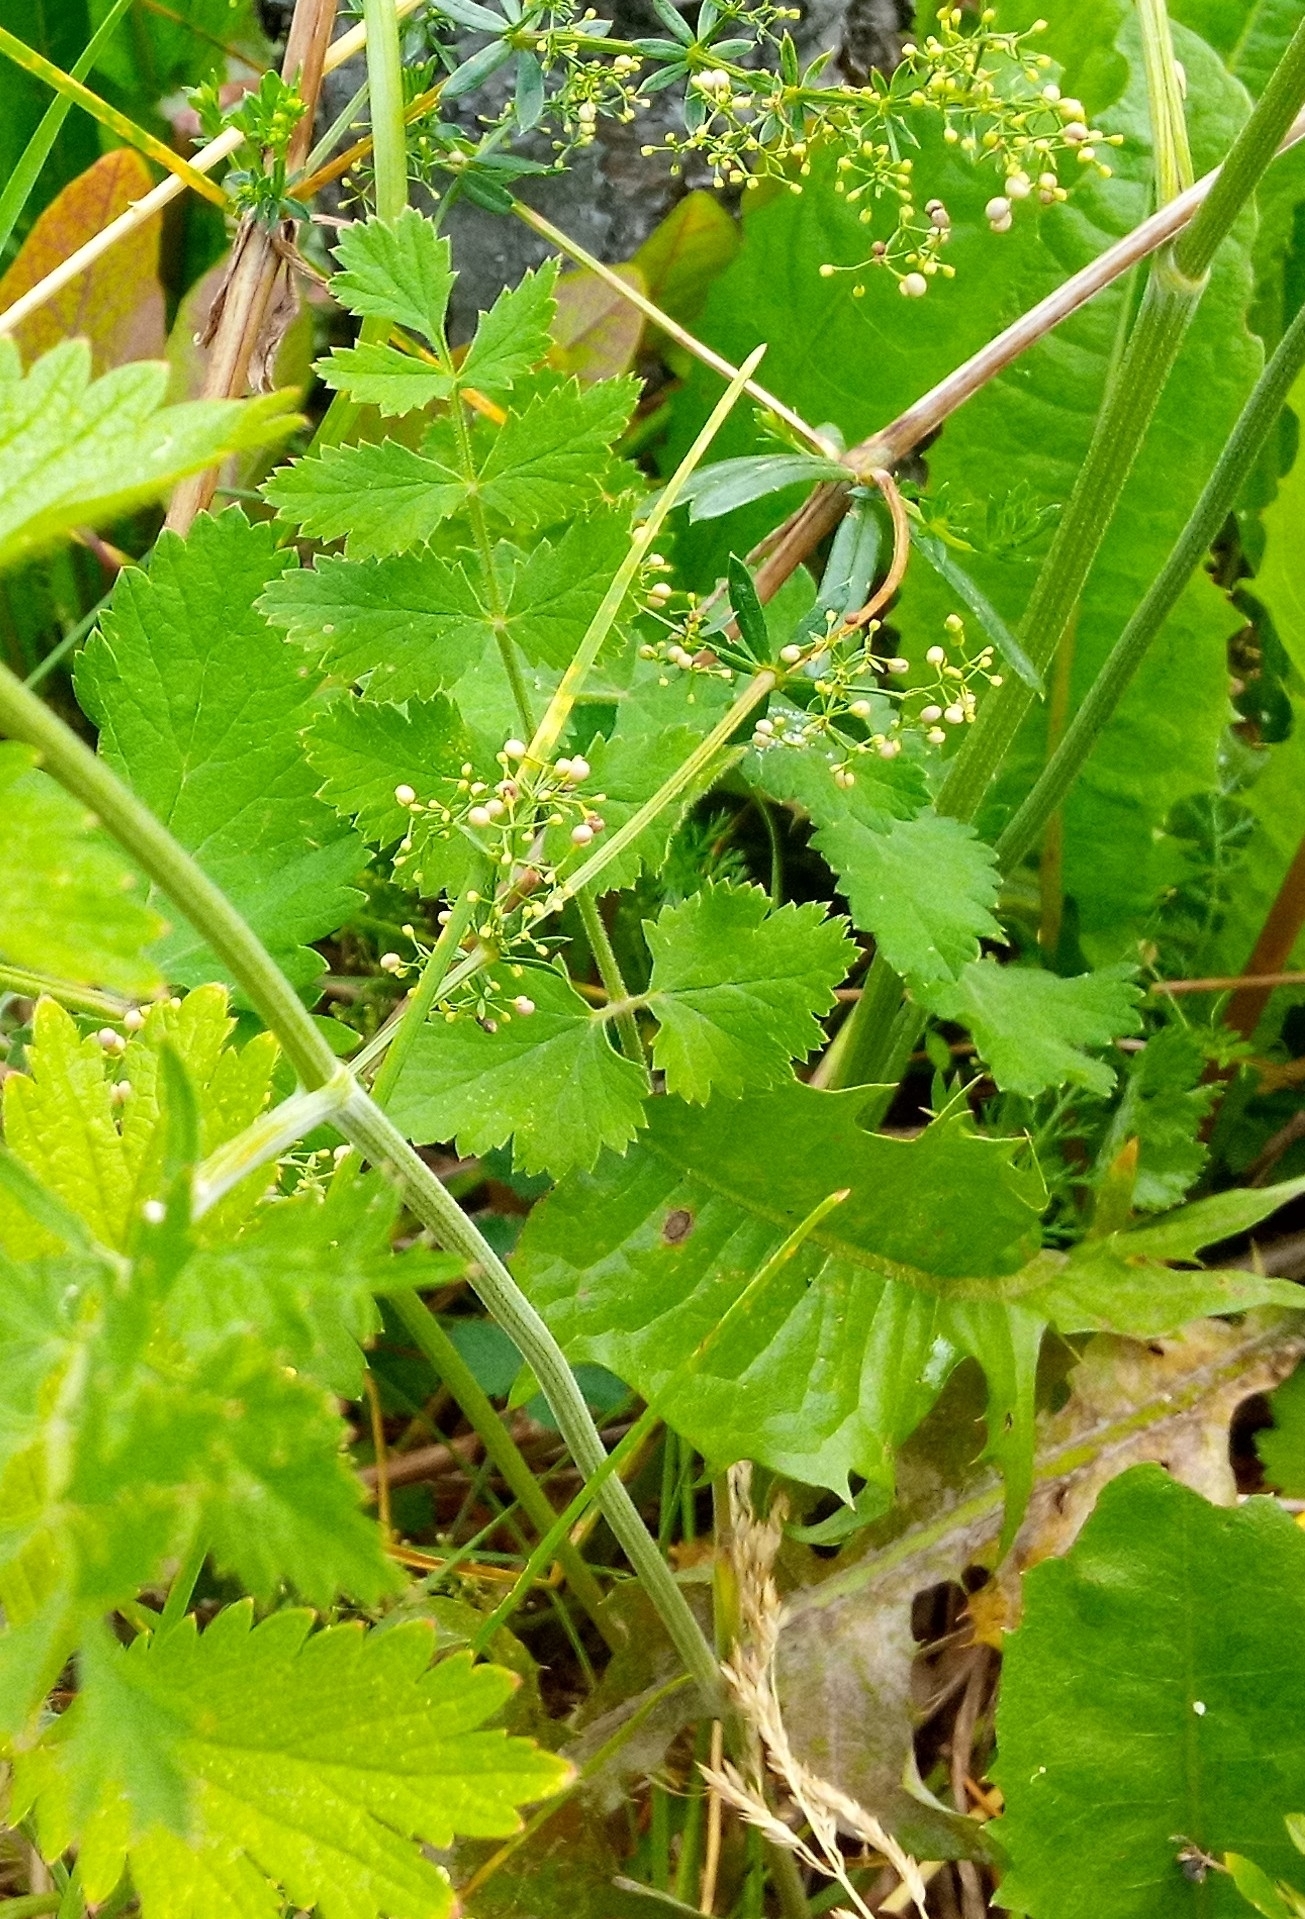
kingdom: Plantae
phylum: Tracheophyta
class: Magnoliopsida
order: Apiales
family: Apiaceae
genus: Pimpinella
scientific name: Pimpinella saxifraga
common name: Burnet-saxifrage
